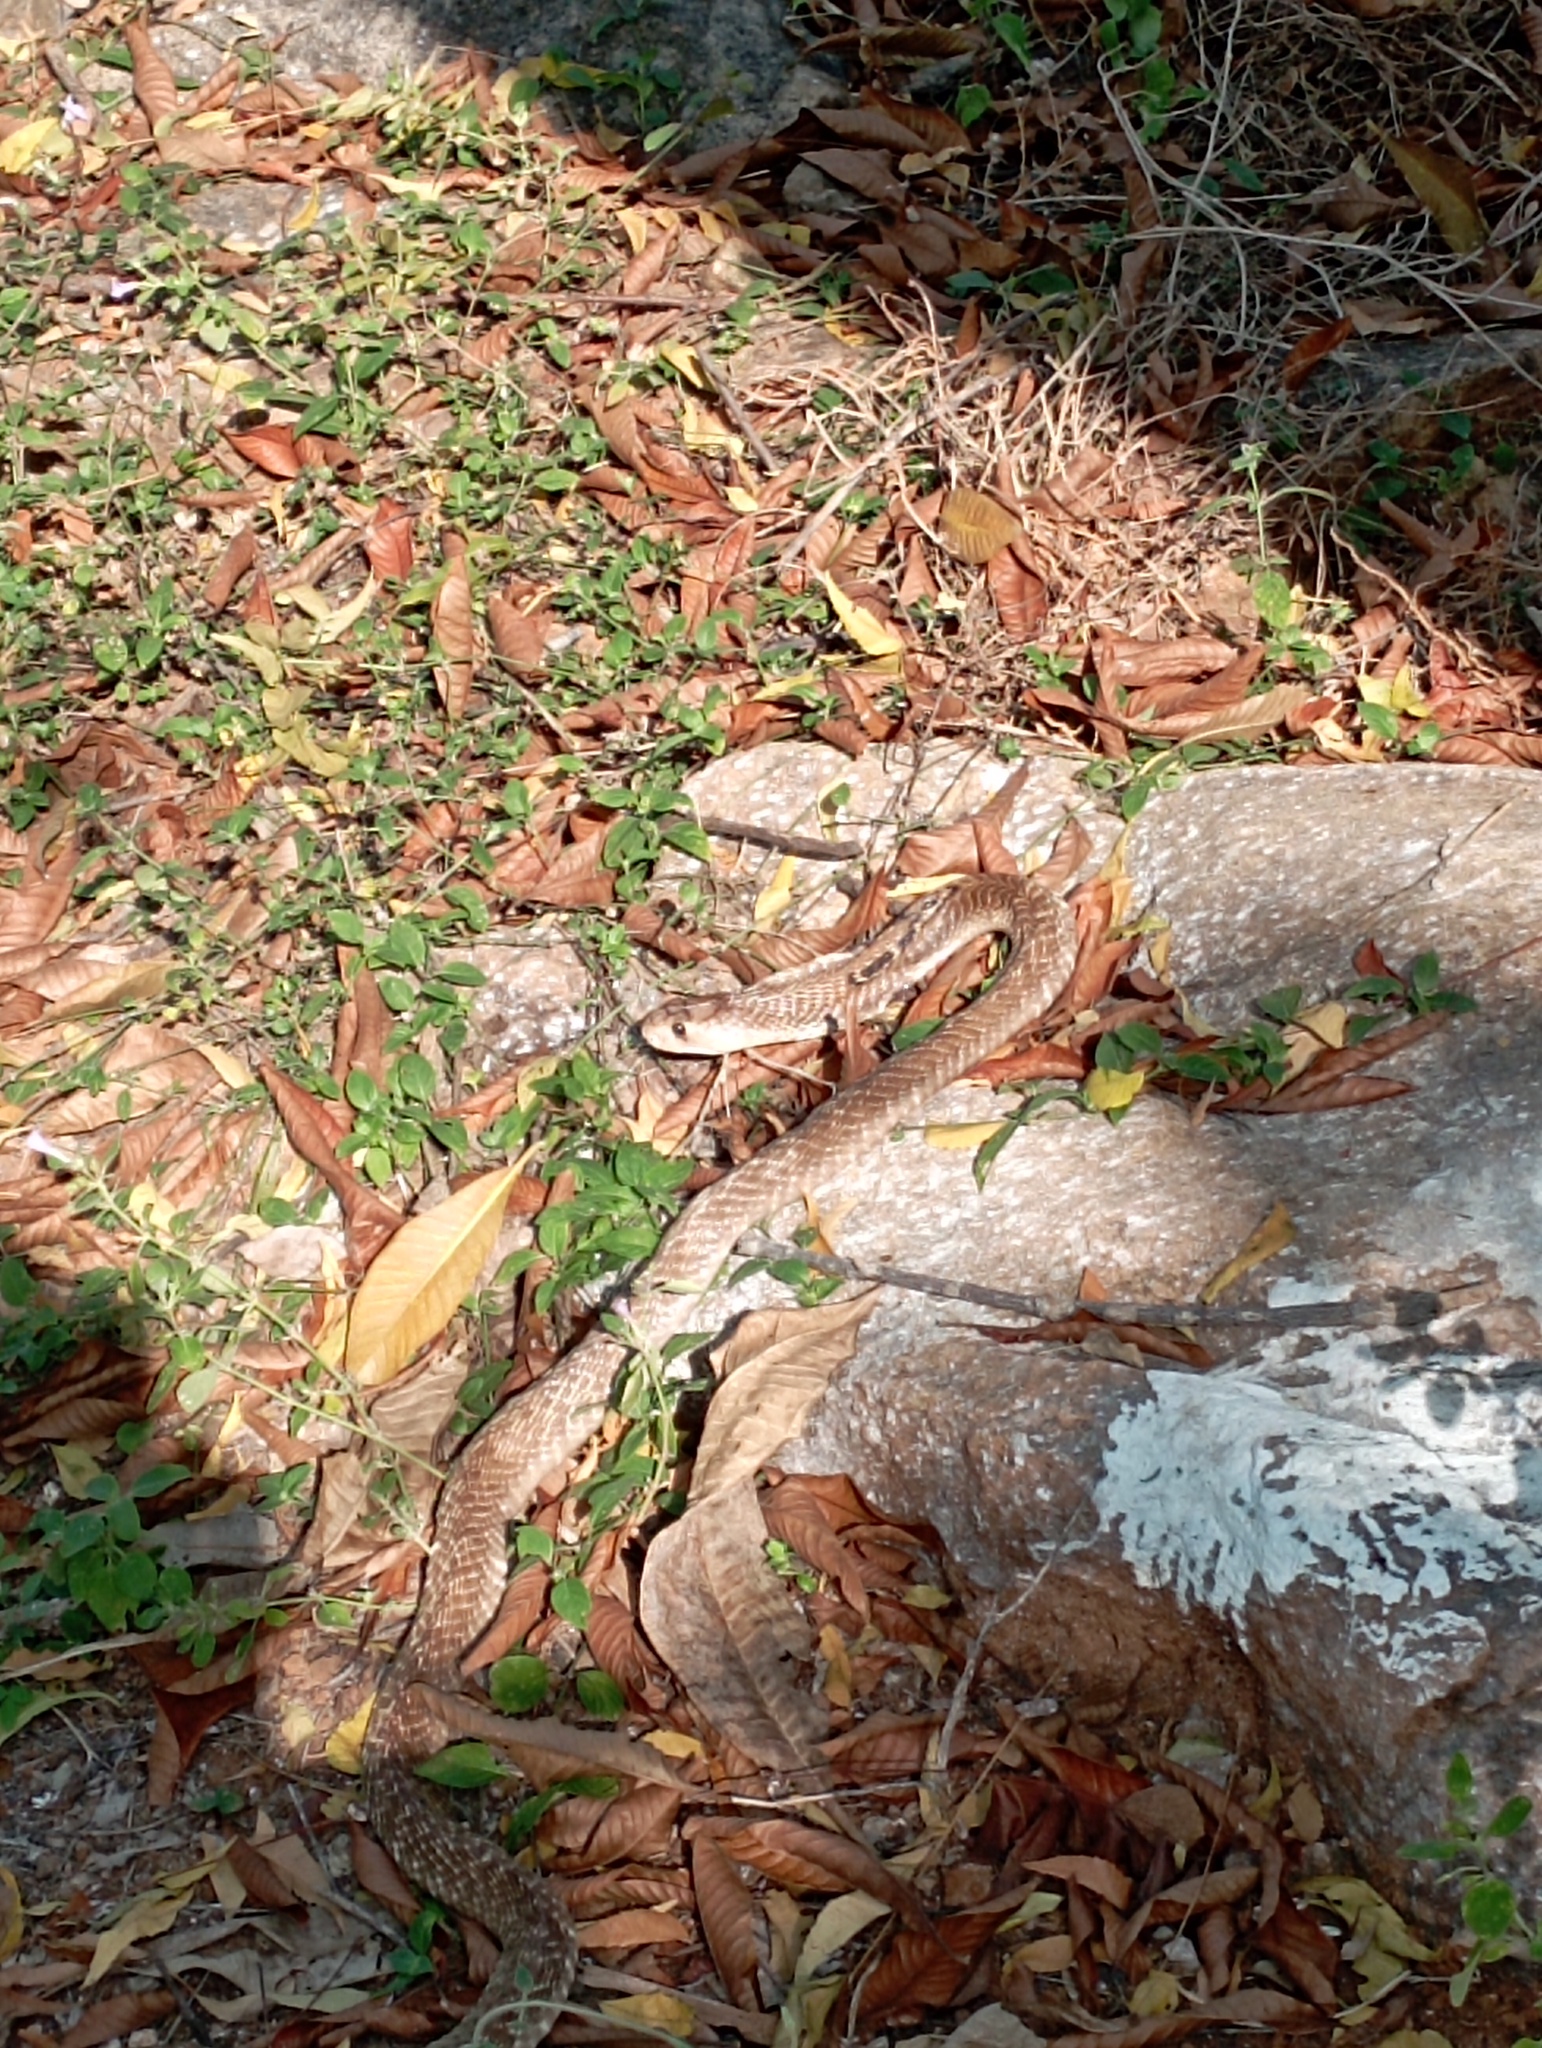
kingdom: Animalia
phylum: Chordata
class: Squamata
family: Elapidae
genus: Naja
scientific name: Naja naja
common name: Indian cobra
